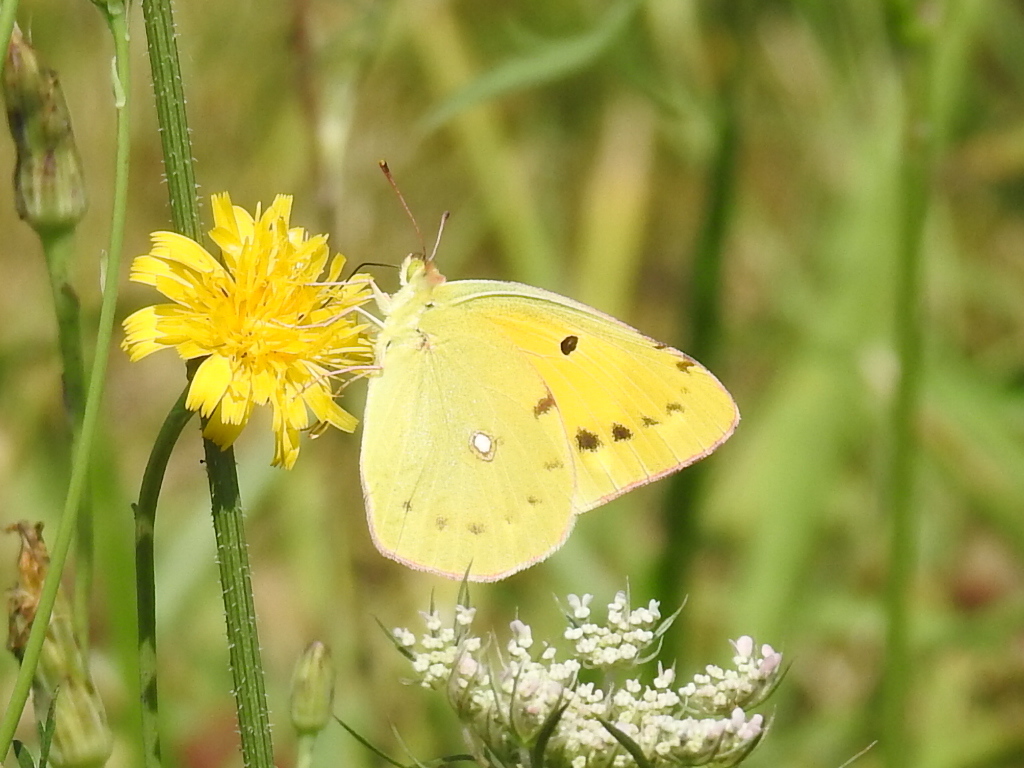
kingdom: Animalia
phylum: Arthropoda
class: Insecta
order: Lepidoptera
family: Pieridae
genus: Colias
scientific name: Colias croceus
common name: Clouded yellow
